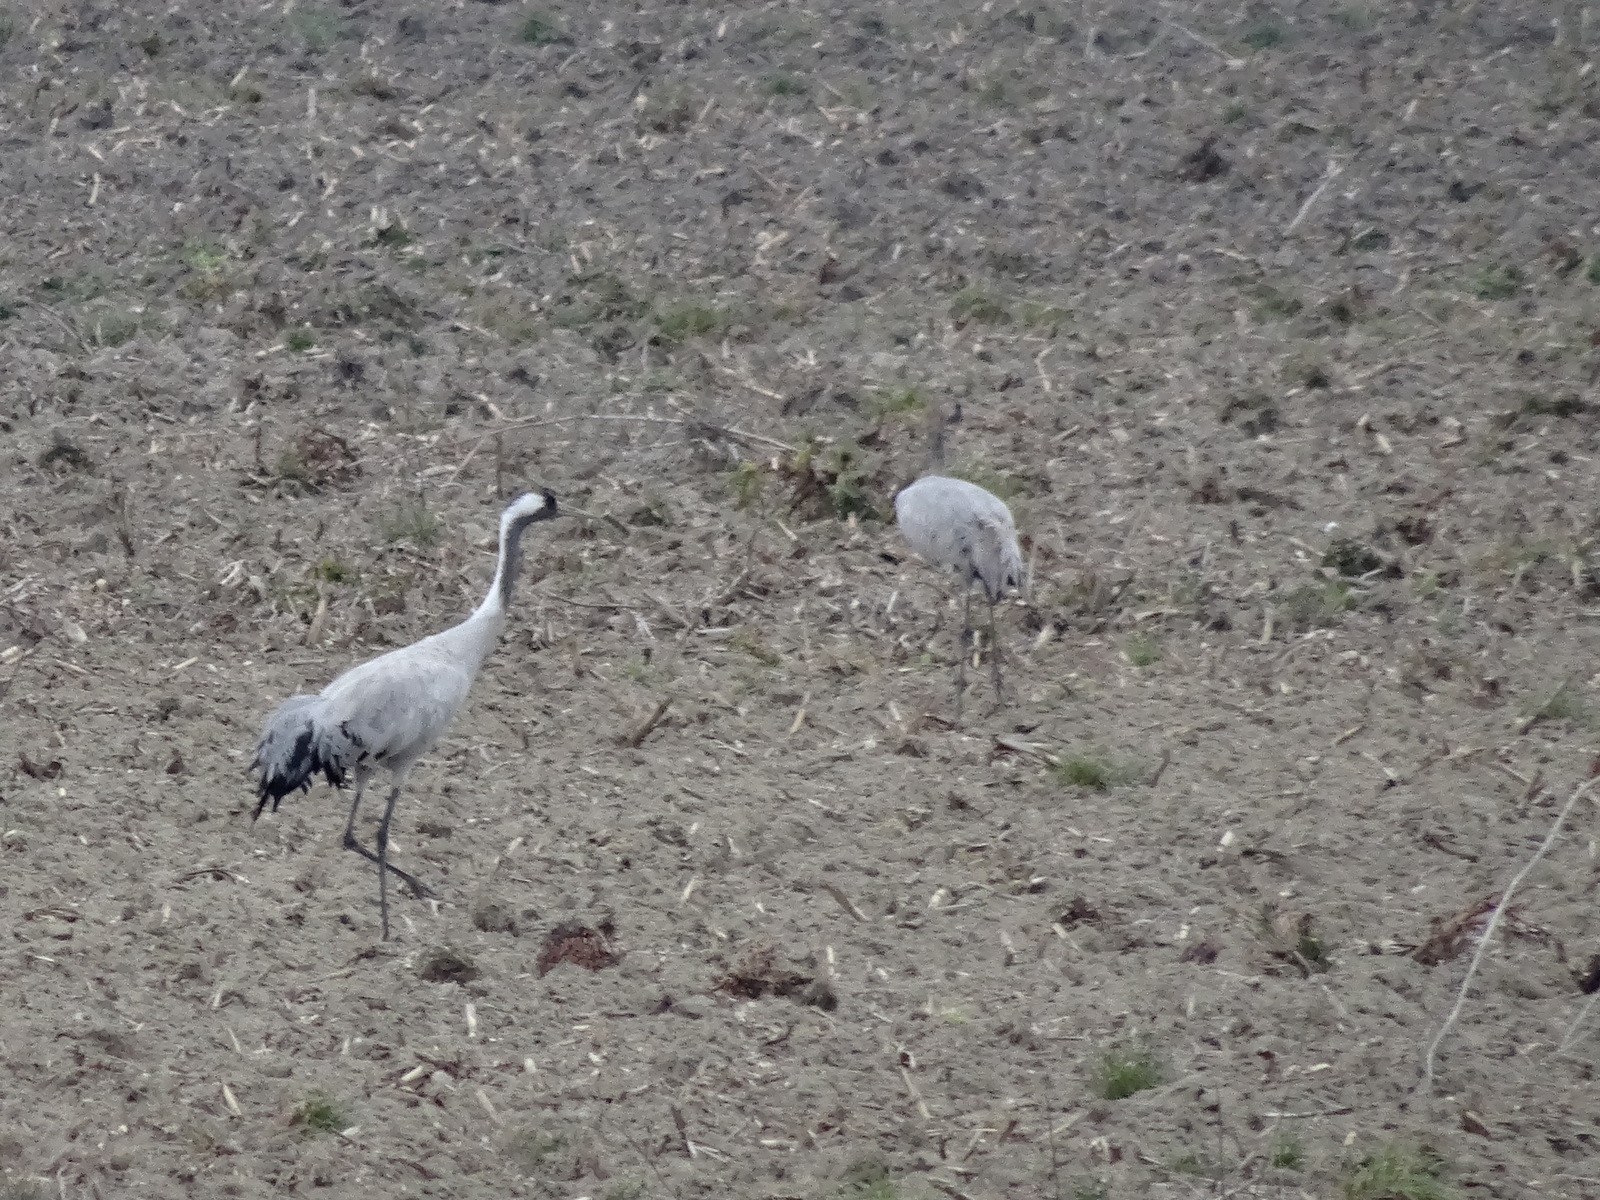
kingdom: Animalia
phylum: Chordata
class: Aves
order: Gruiformes
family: Gruidae
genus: Grus
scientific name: Grus grus
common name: Common crane
